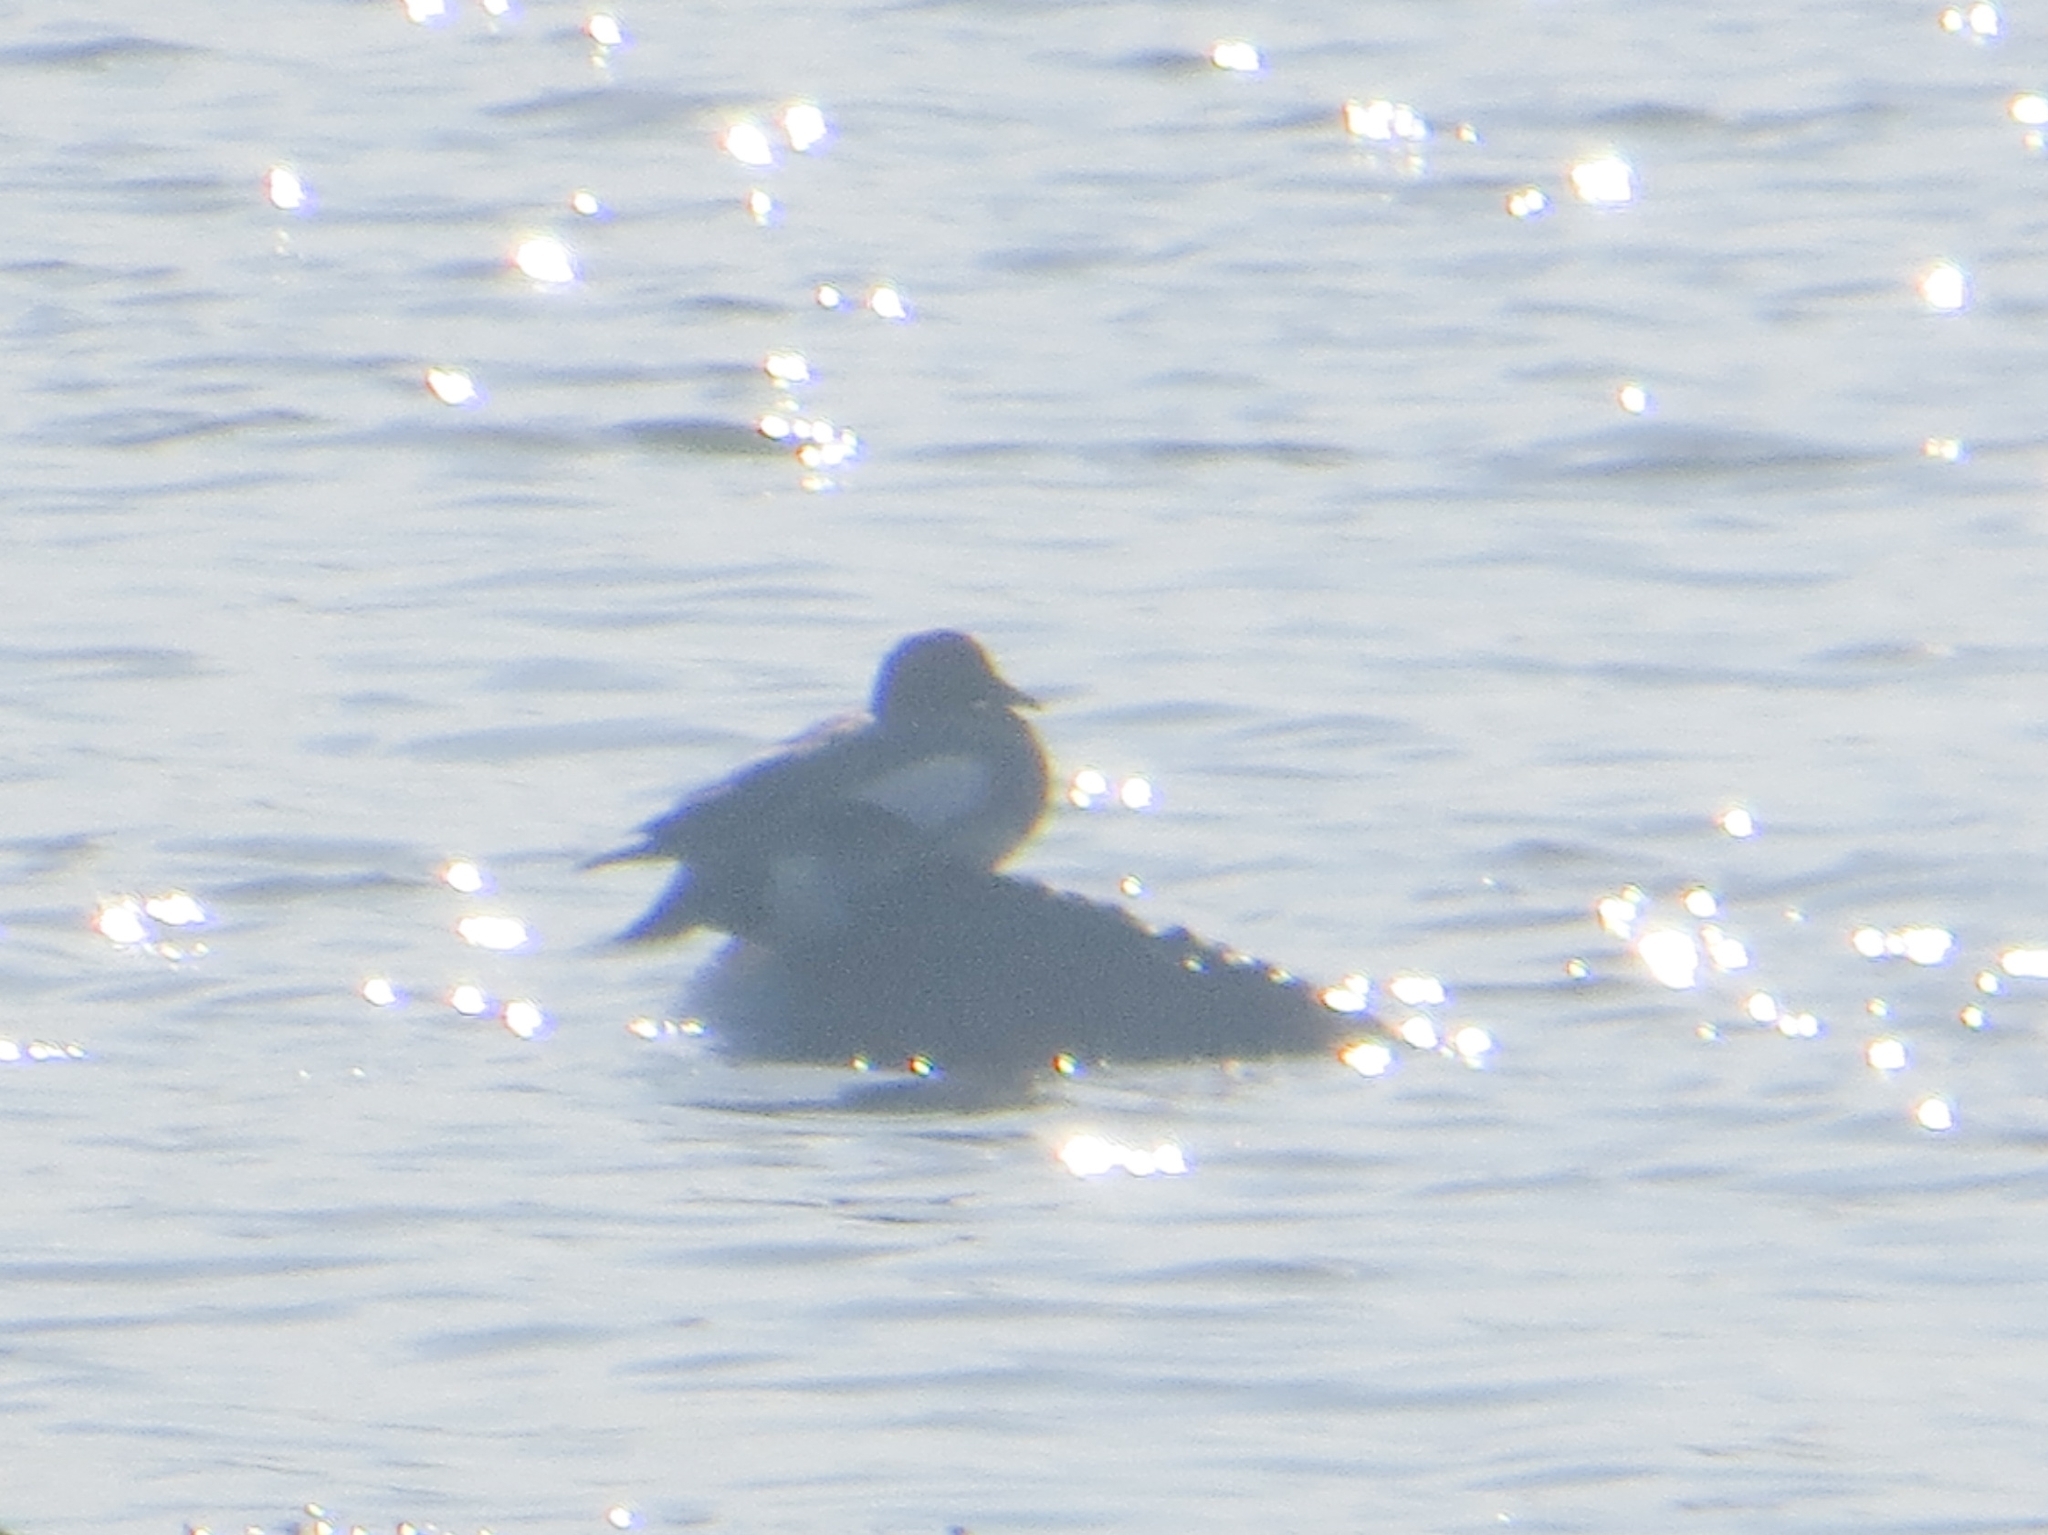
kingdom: Animalia
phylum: Chordata
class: Aves
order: Anseriformes
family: Anatidae
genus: Mareca
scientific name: Mareca penelope
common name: Eurasian wigeon
